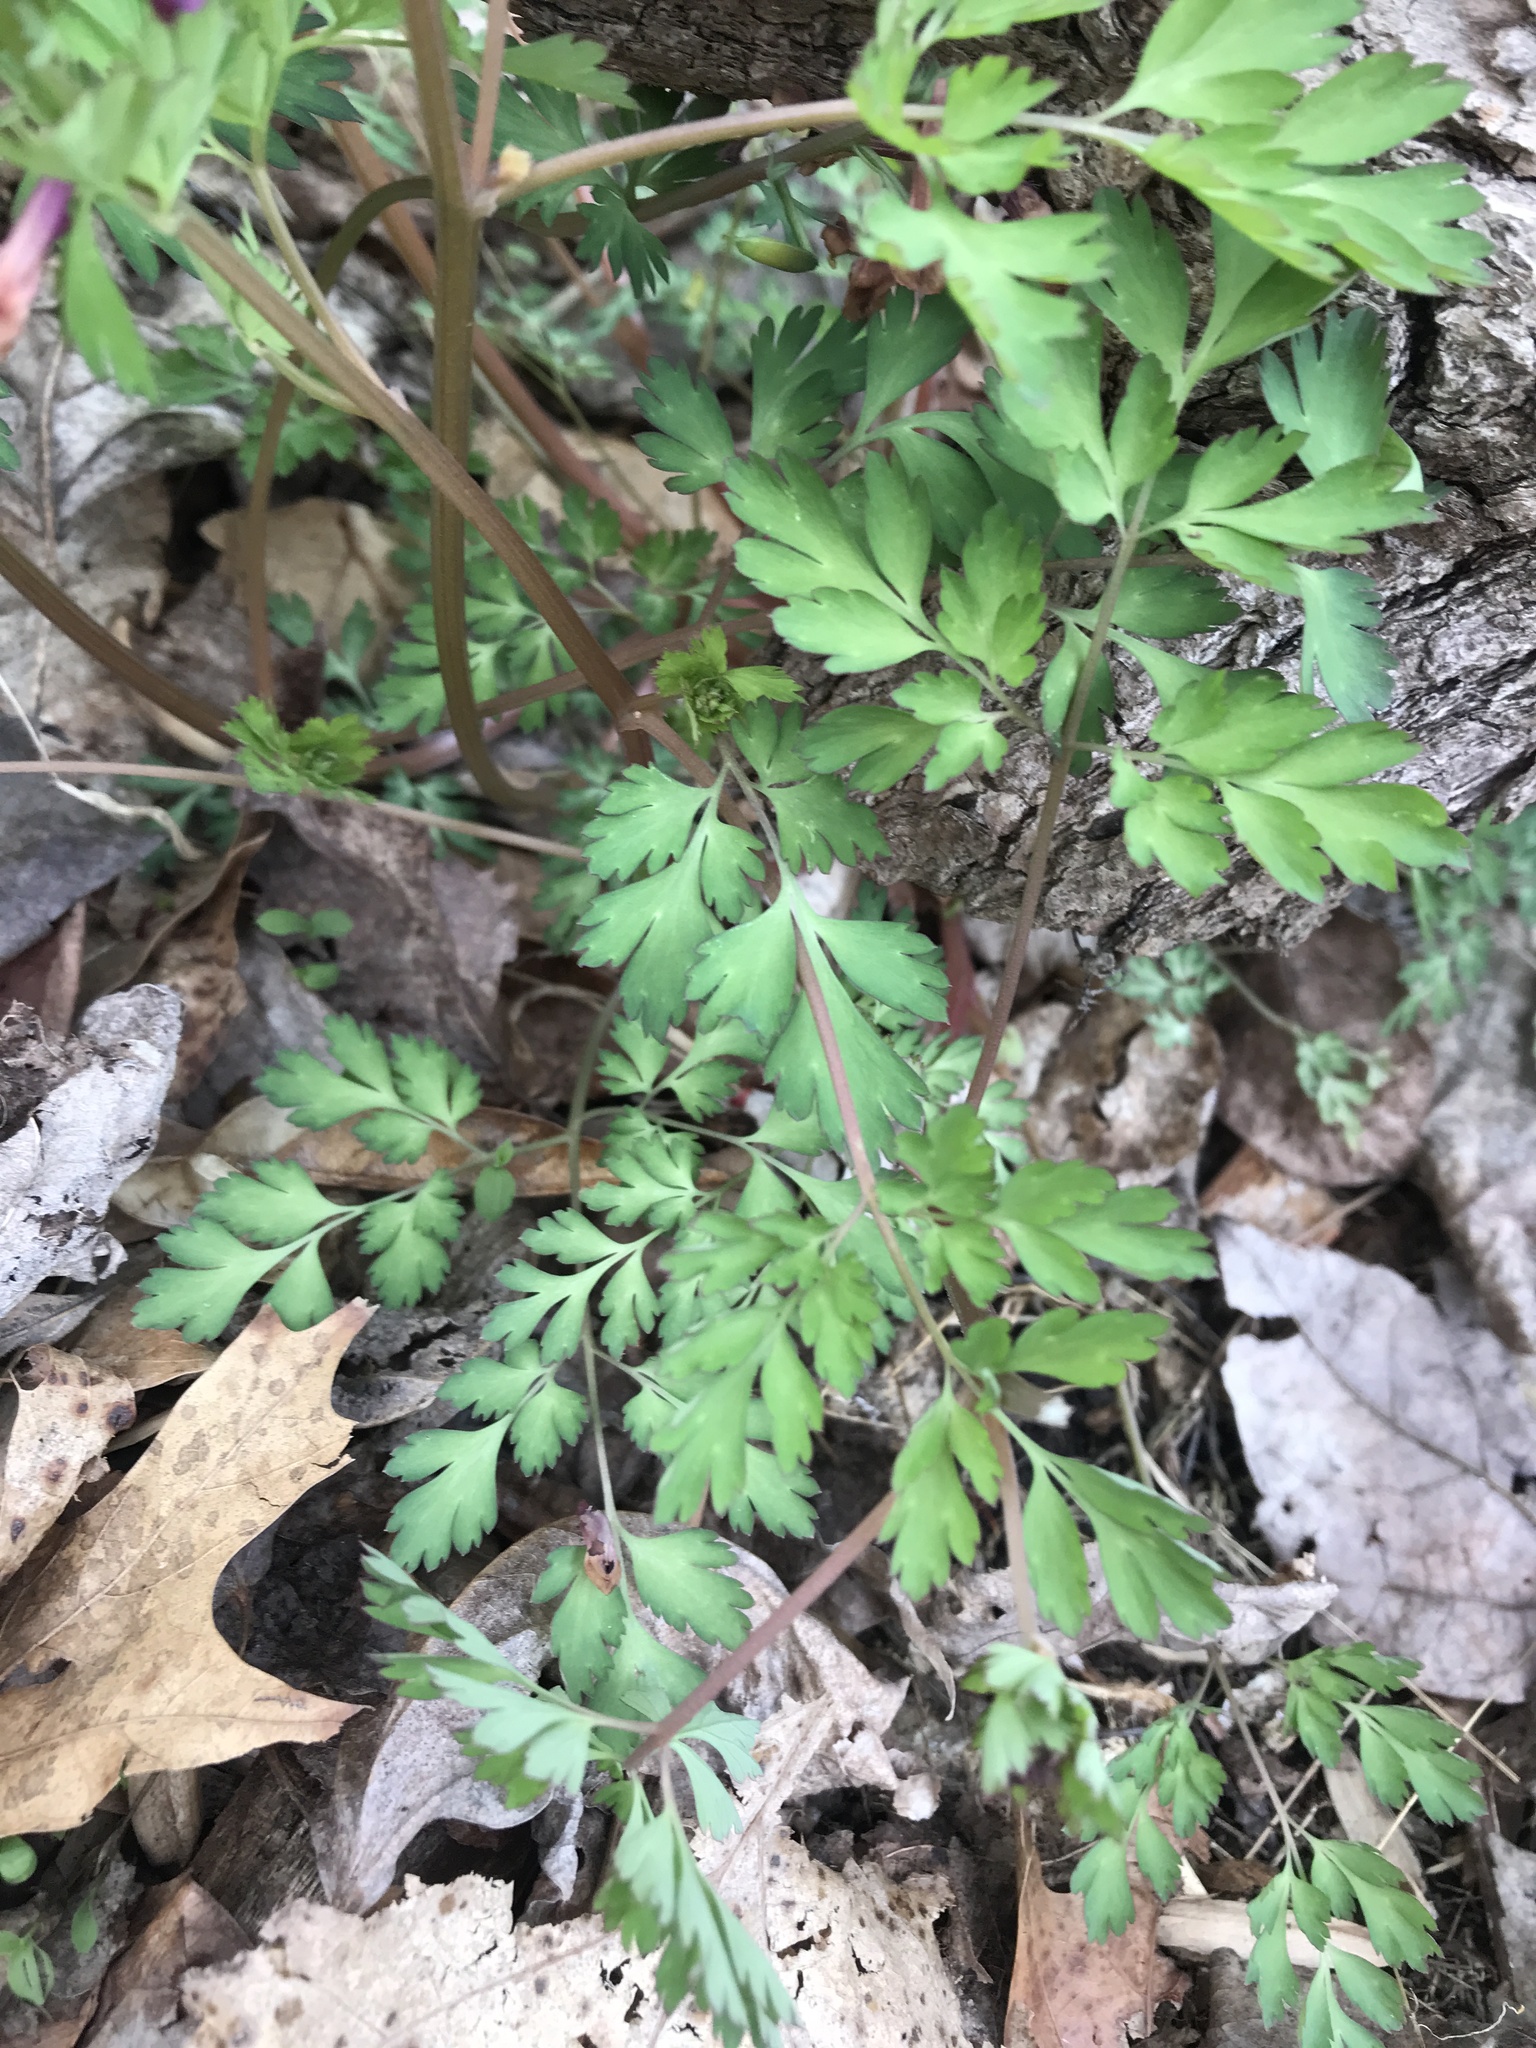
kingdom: Plantae
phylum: Tracheophyta
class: Magnoliopsida
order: Ranunculales
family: Papaveraceae
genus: Corydalis
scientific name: Corydalis incisa
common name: Incised fumewort
